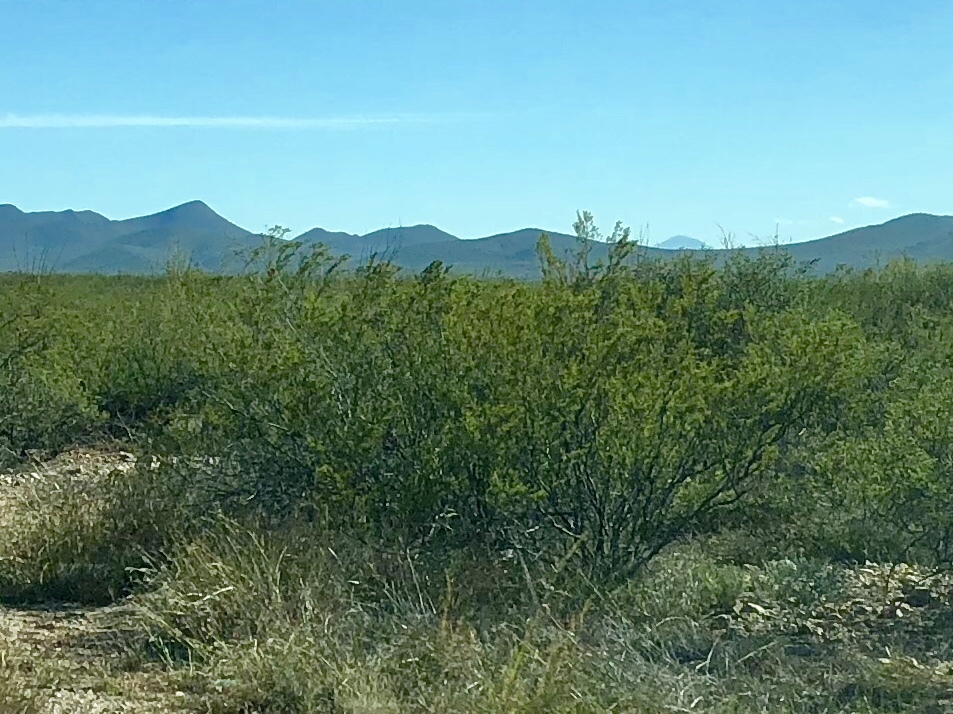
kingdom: Plantae
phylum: Tracheophyta
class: Magnoliopsida
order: Zygophyllales
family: Zygophyllaceae
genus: Larrea
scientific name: Larrea tridentata
